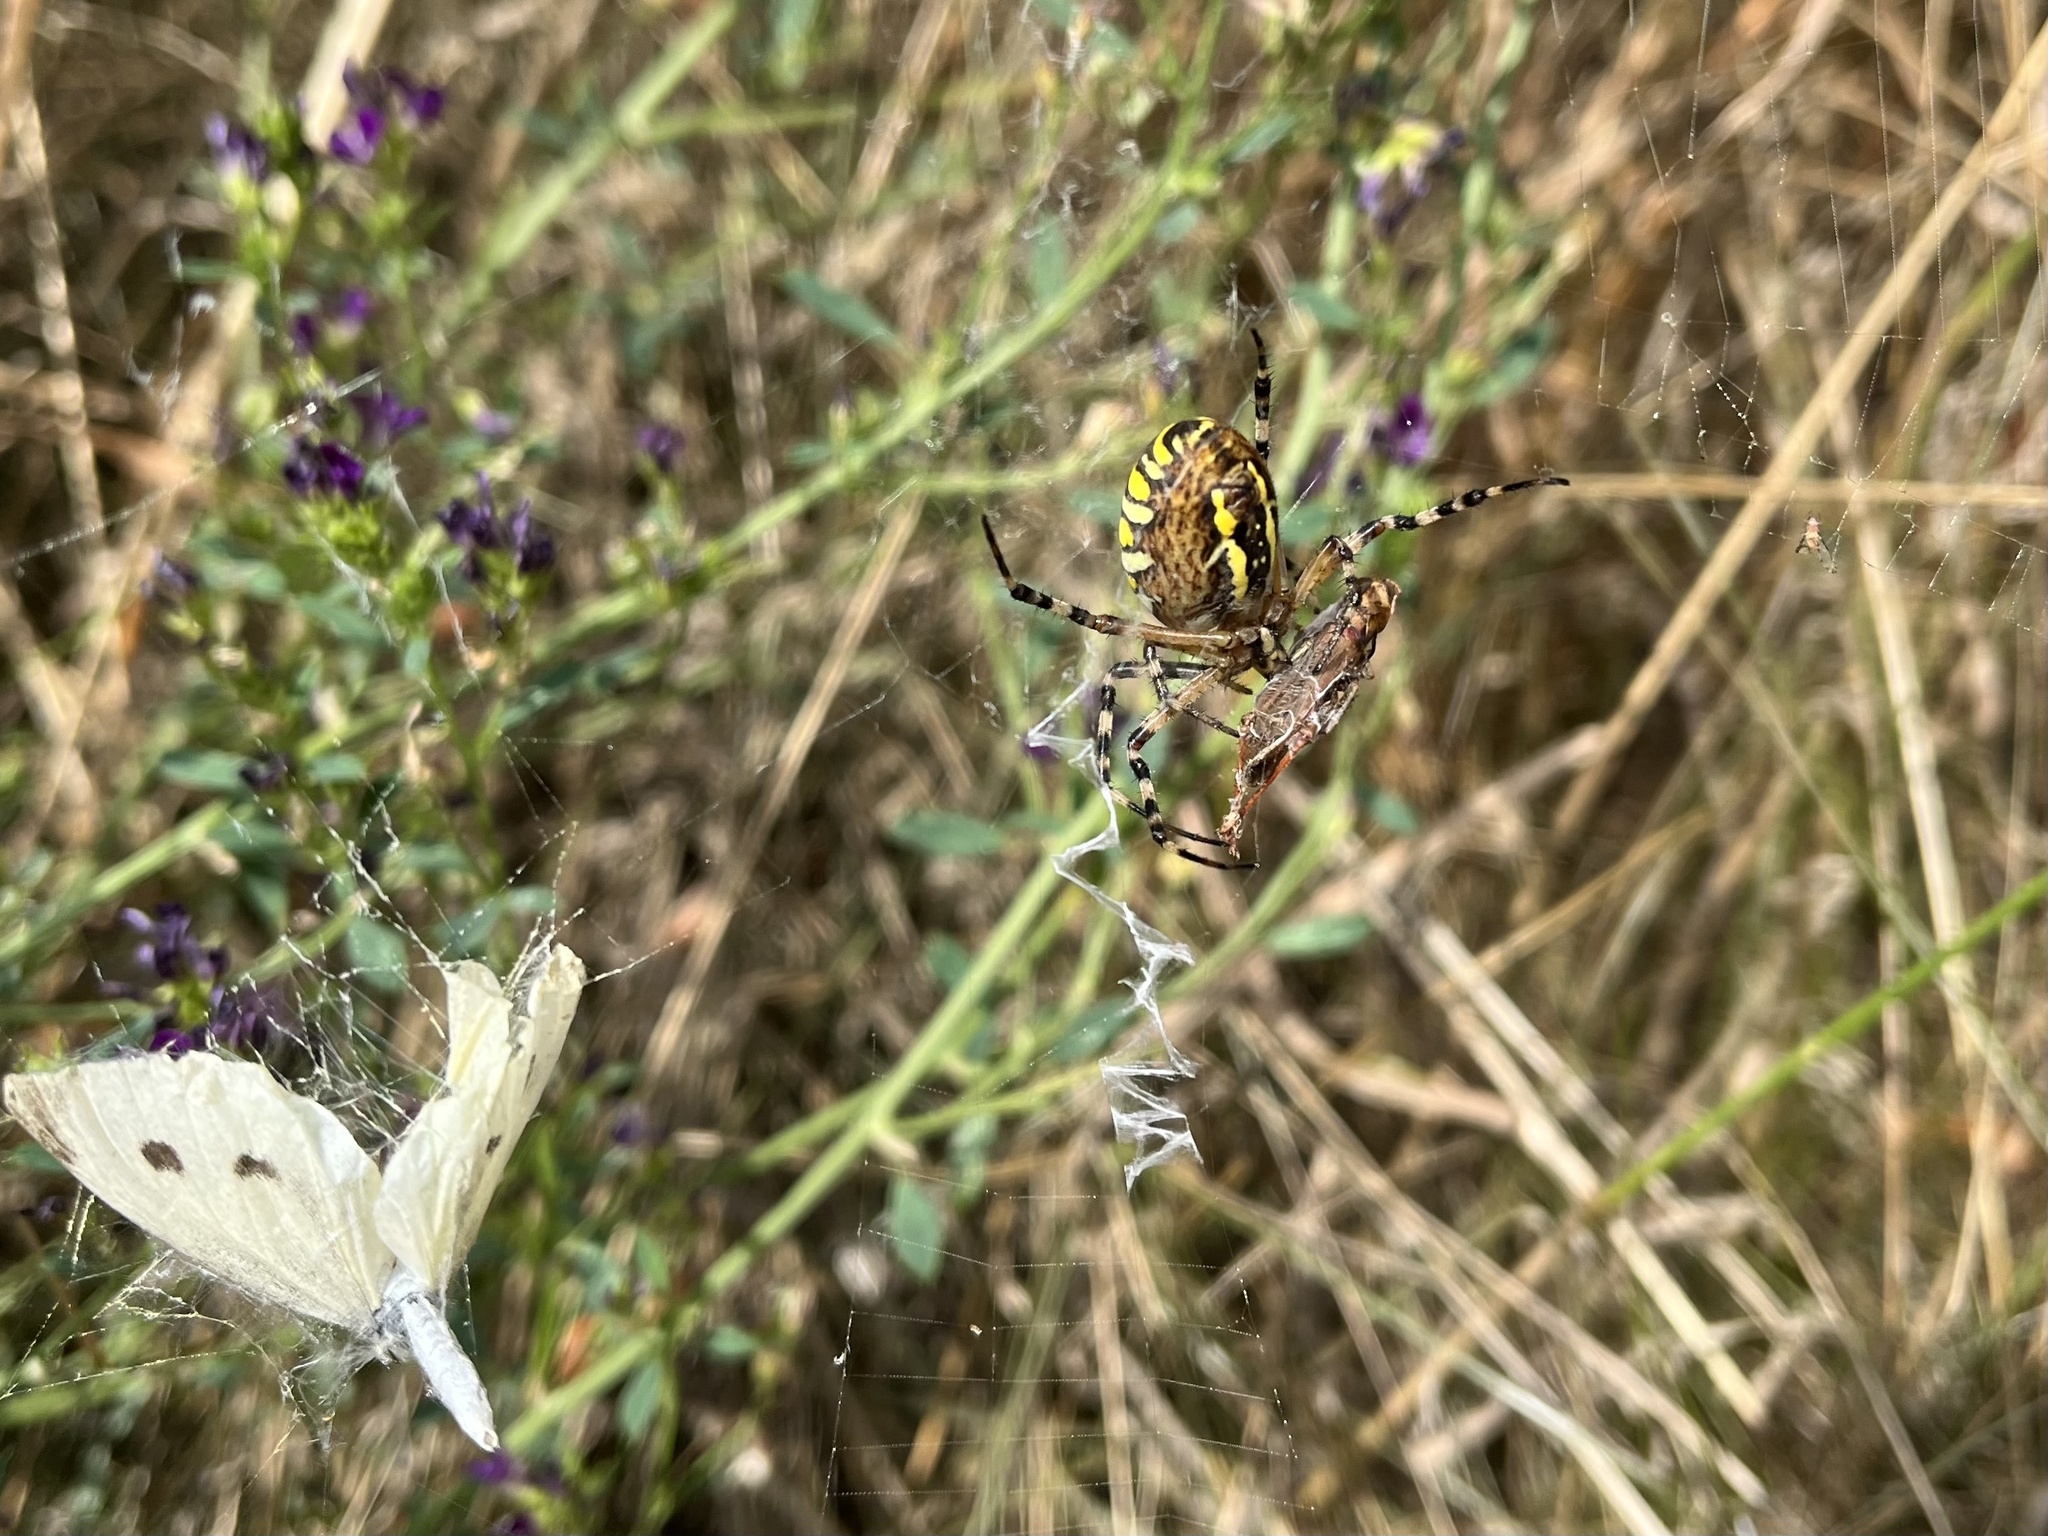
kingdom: Animalia
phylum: Arthropoda
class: Arachnida
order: Araneae
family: Araneidae
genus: Argiope
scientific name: Argiope bruennichi
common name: Wasp spider
